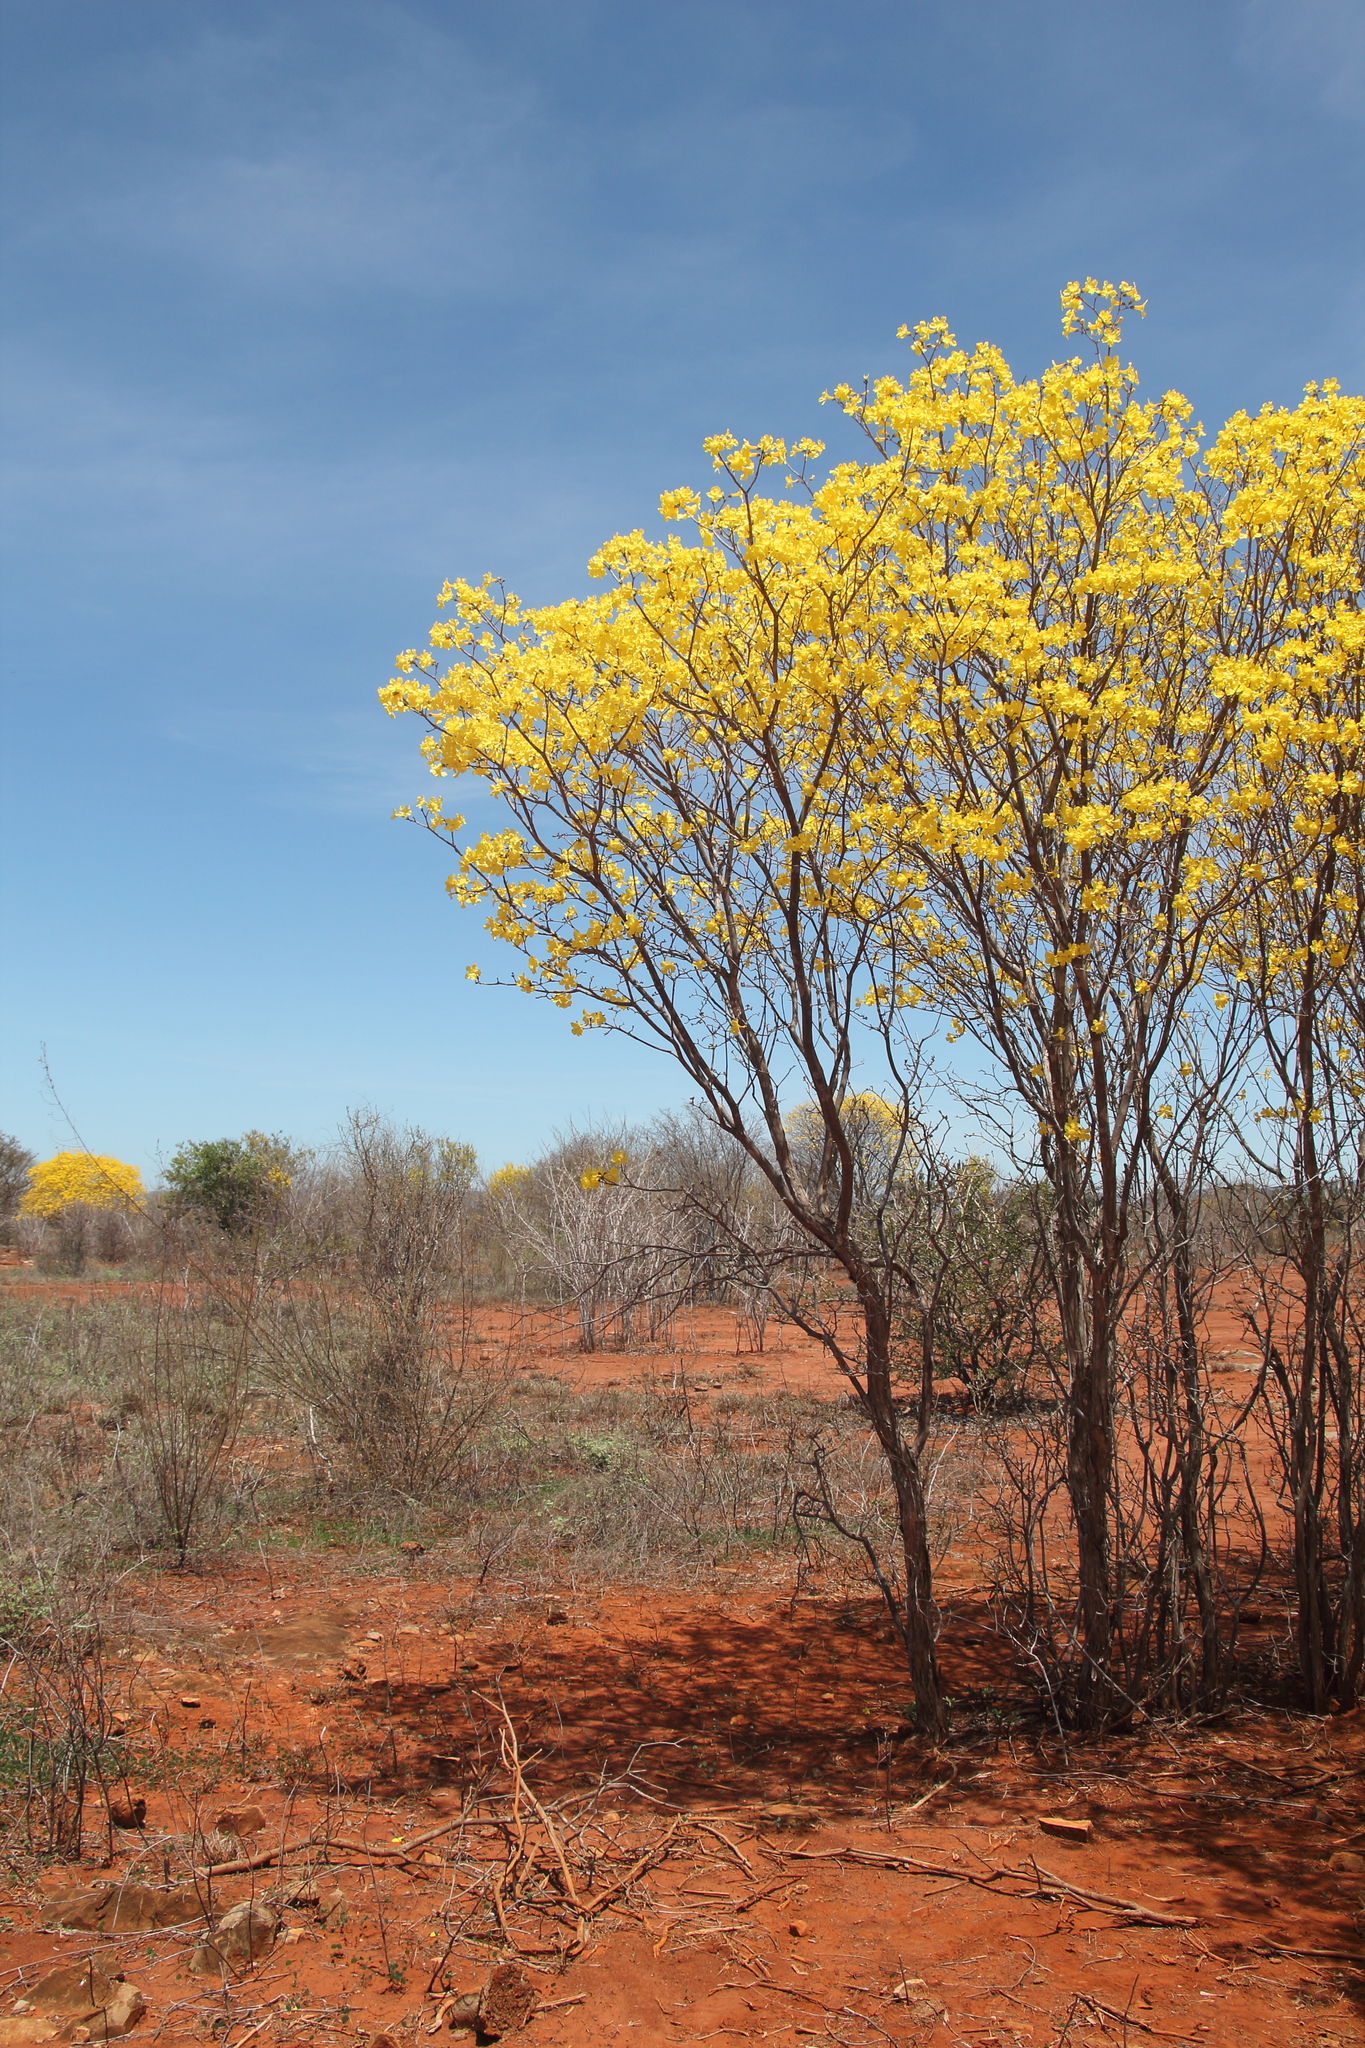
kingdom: Plantae
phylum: Tracheophyta
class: Magnoliopsida
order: Lamiales
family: Bignoniaceae
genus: Handroanthus
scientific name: Handroanthus spongiosus
